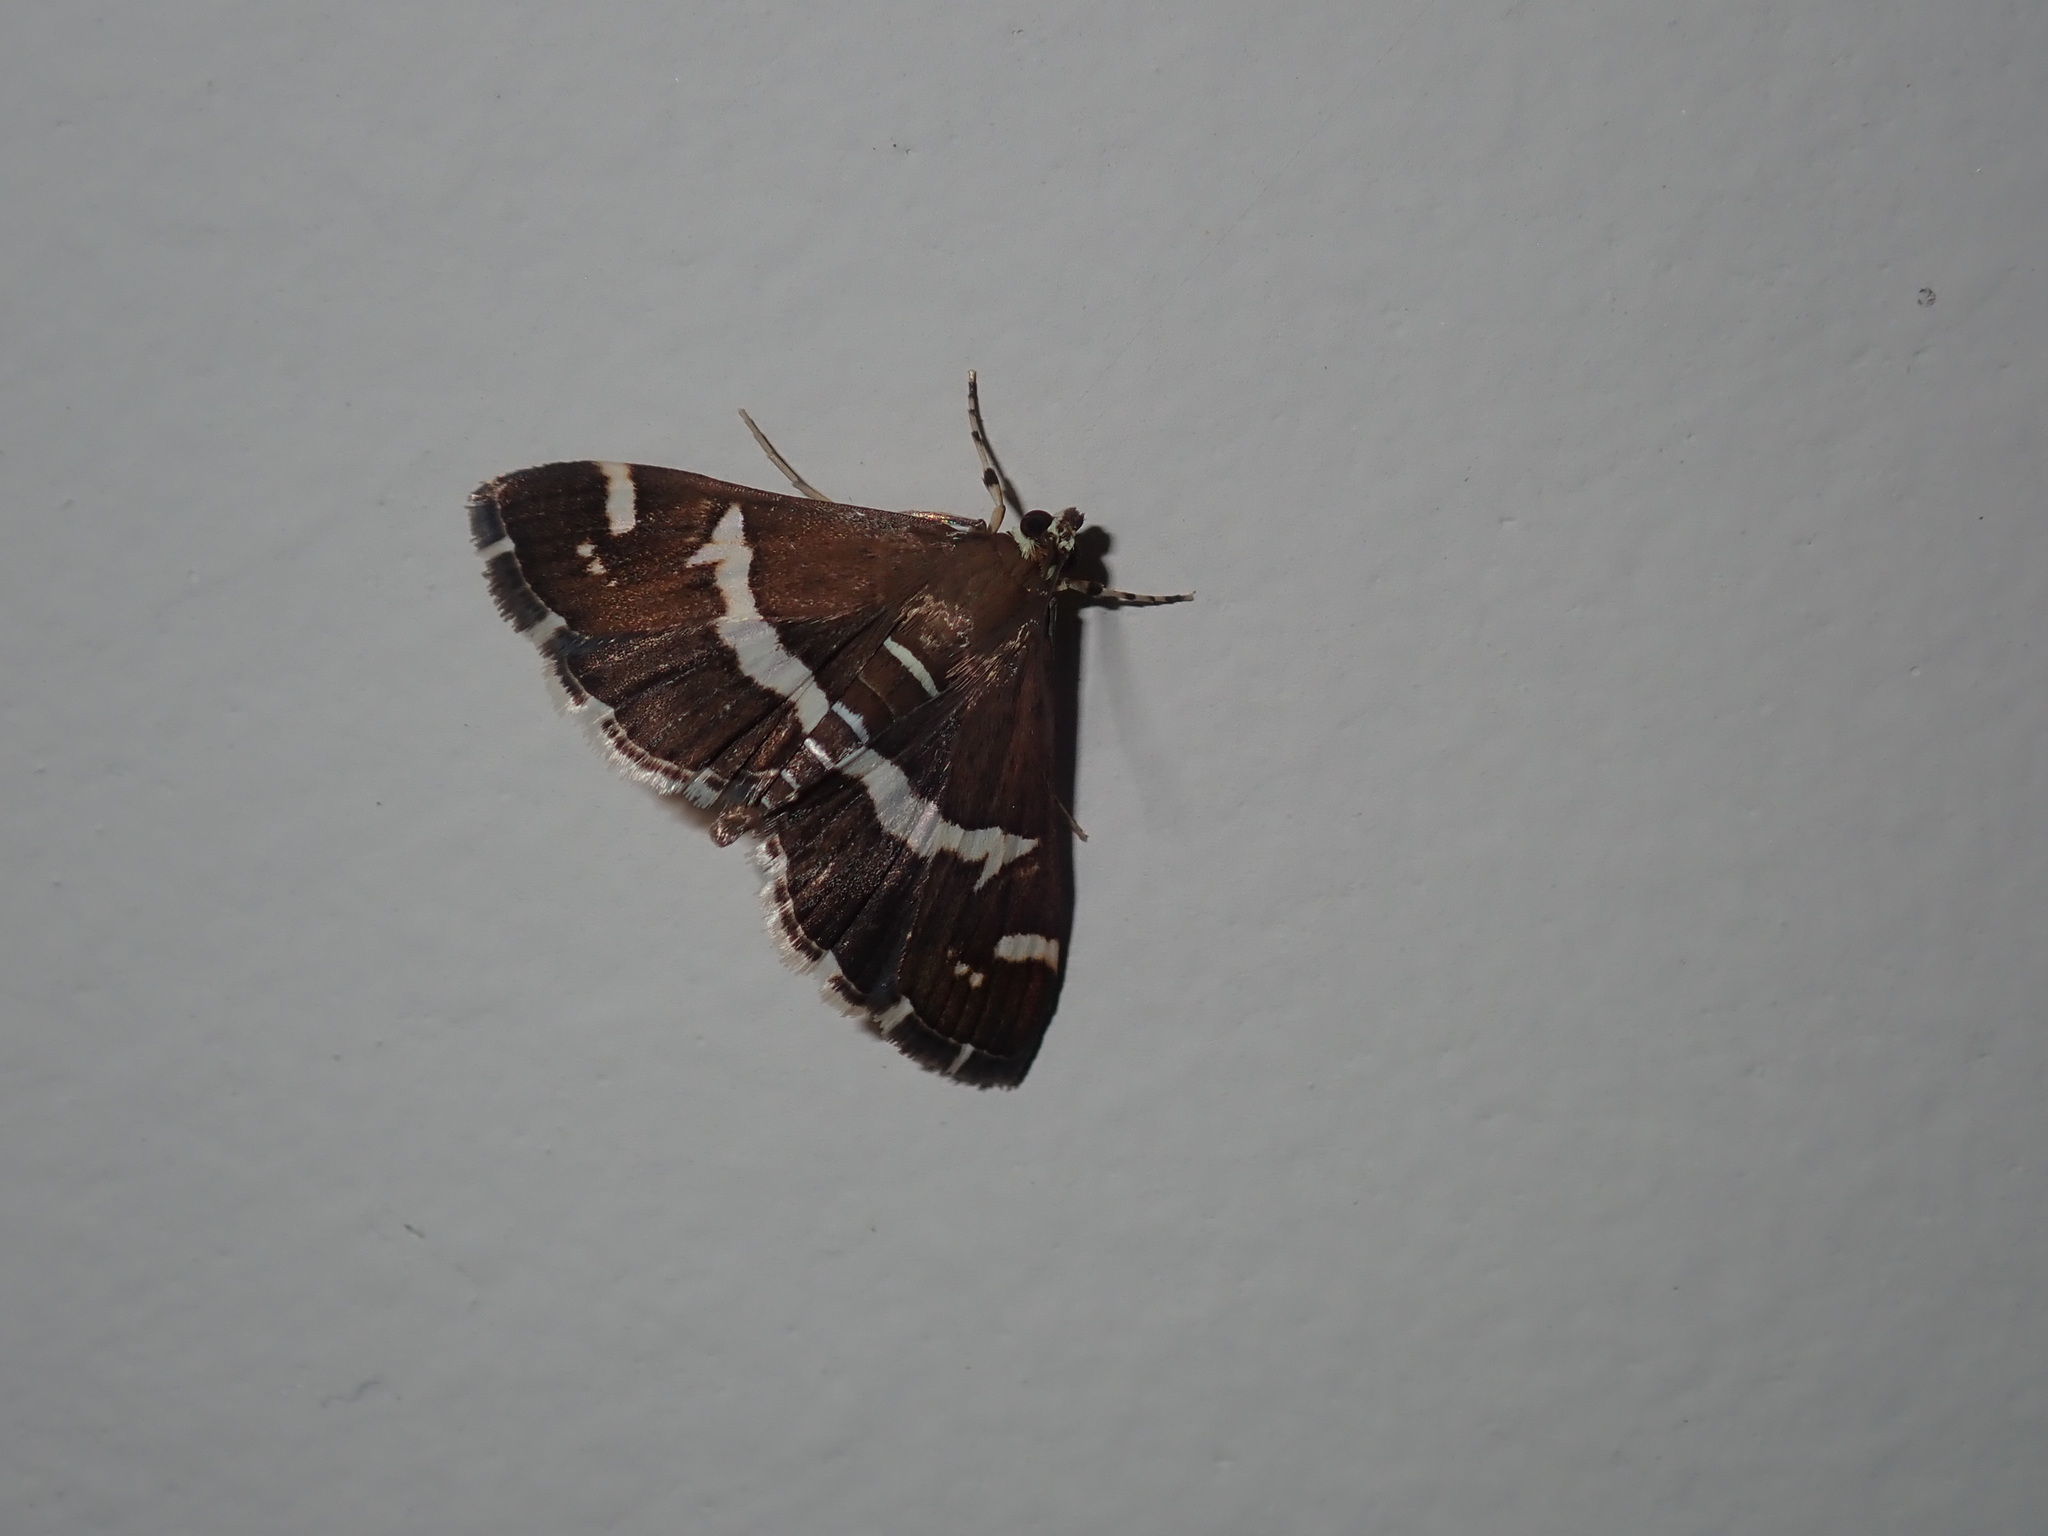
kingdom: Animalia
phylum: Arthropoda
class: Insecta
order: Lepidoptera
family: Crambidae
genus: Spoladea
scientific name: Spoladea recurvalis
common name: Beet webworm moth
